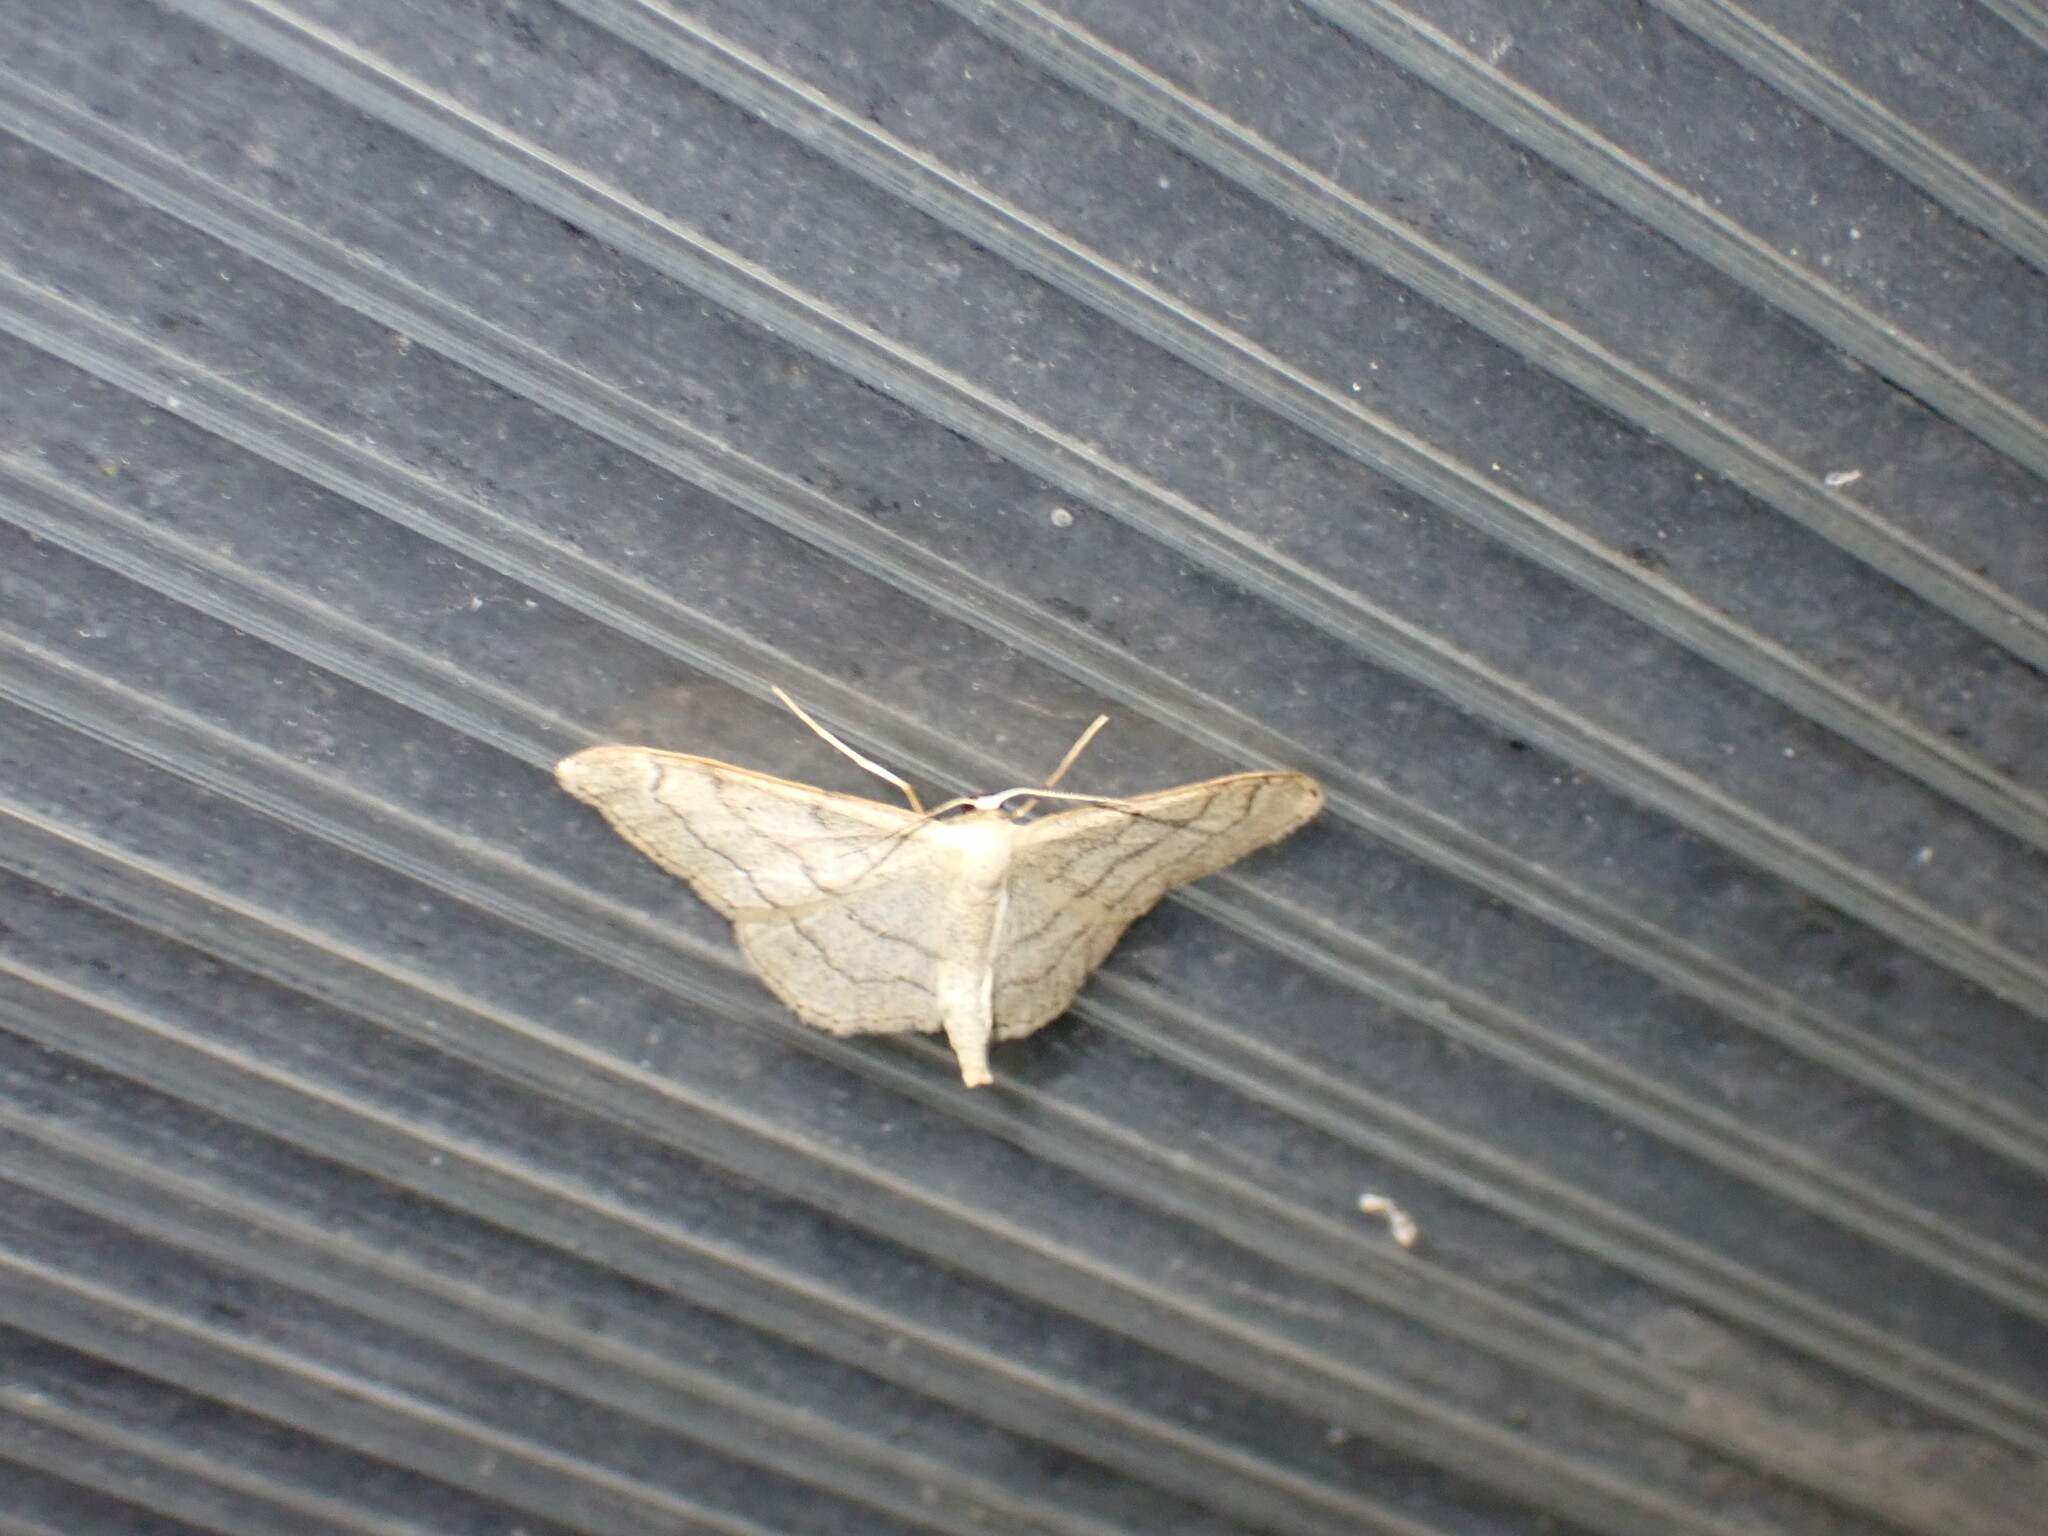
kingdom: Animalia
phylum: Arthropoda
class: Insecta
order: Lepidoptera
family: Geometridae
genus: Idaea
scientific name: Idaea aversata
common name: Riband wave
